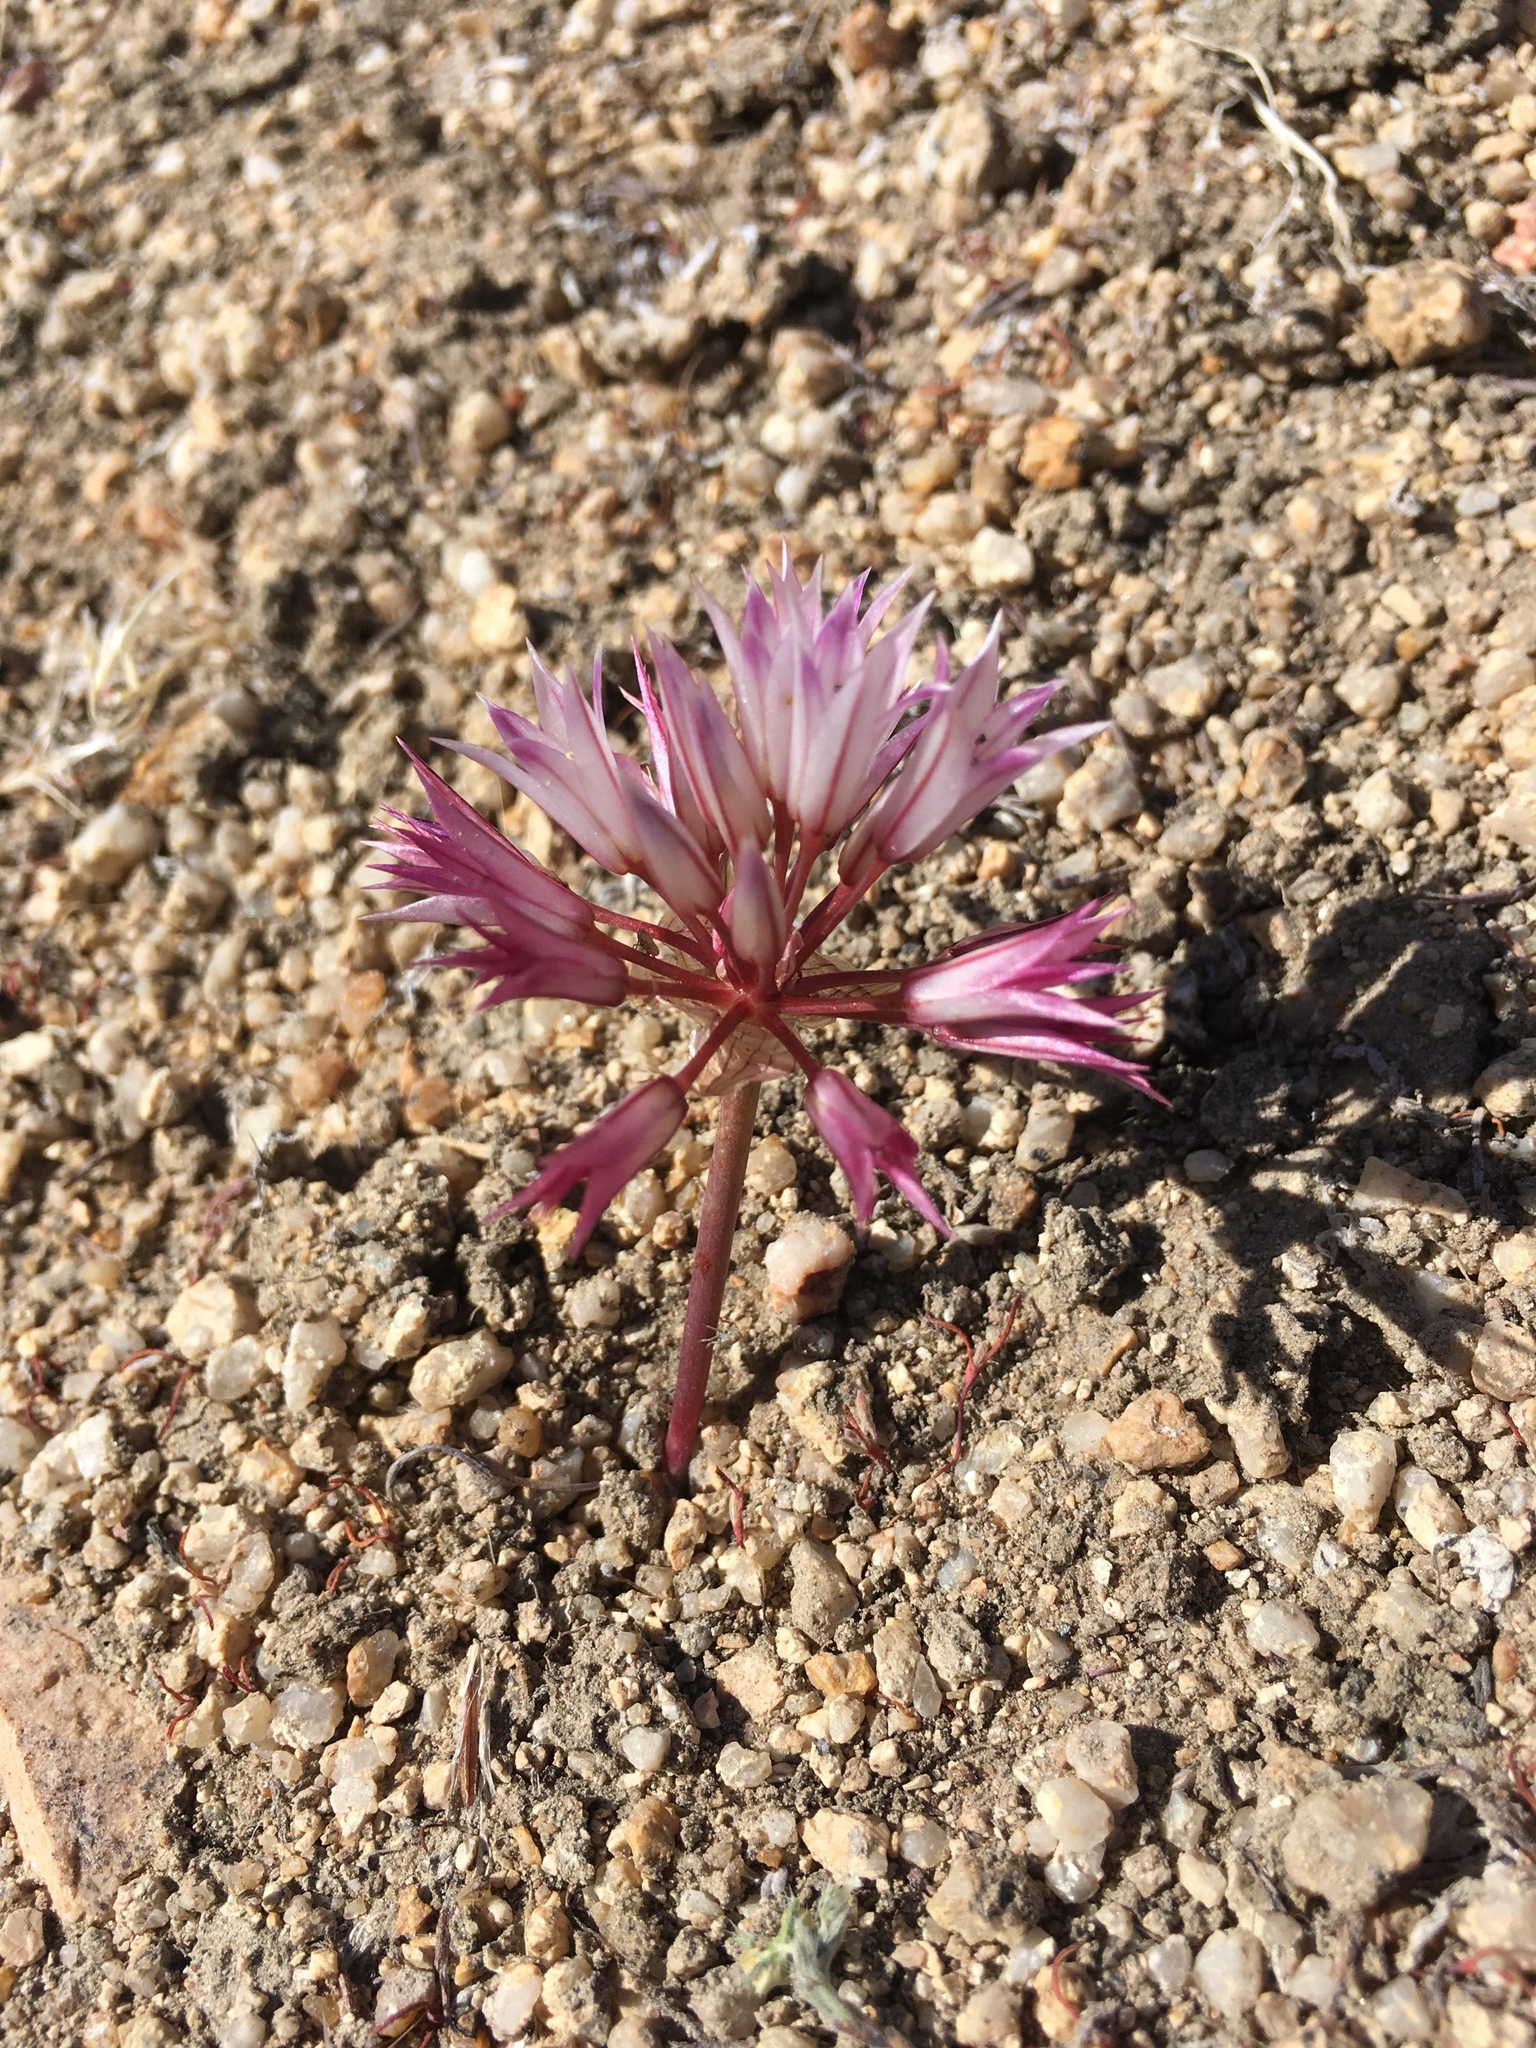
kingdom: Plantae
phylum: Tracheophyta
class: Liliopsida
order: Asparagales
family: Amaryllidaceae
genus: Allium
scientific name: Allium atrorubens
